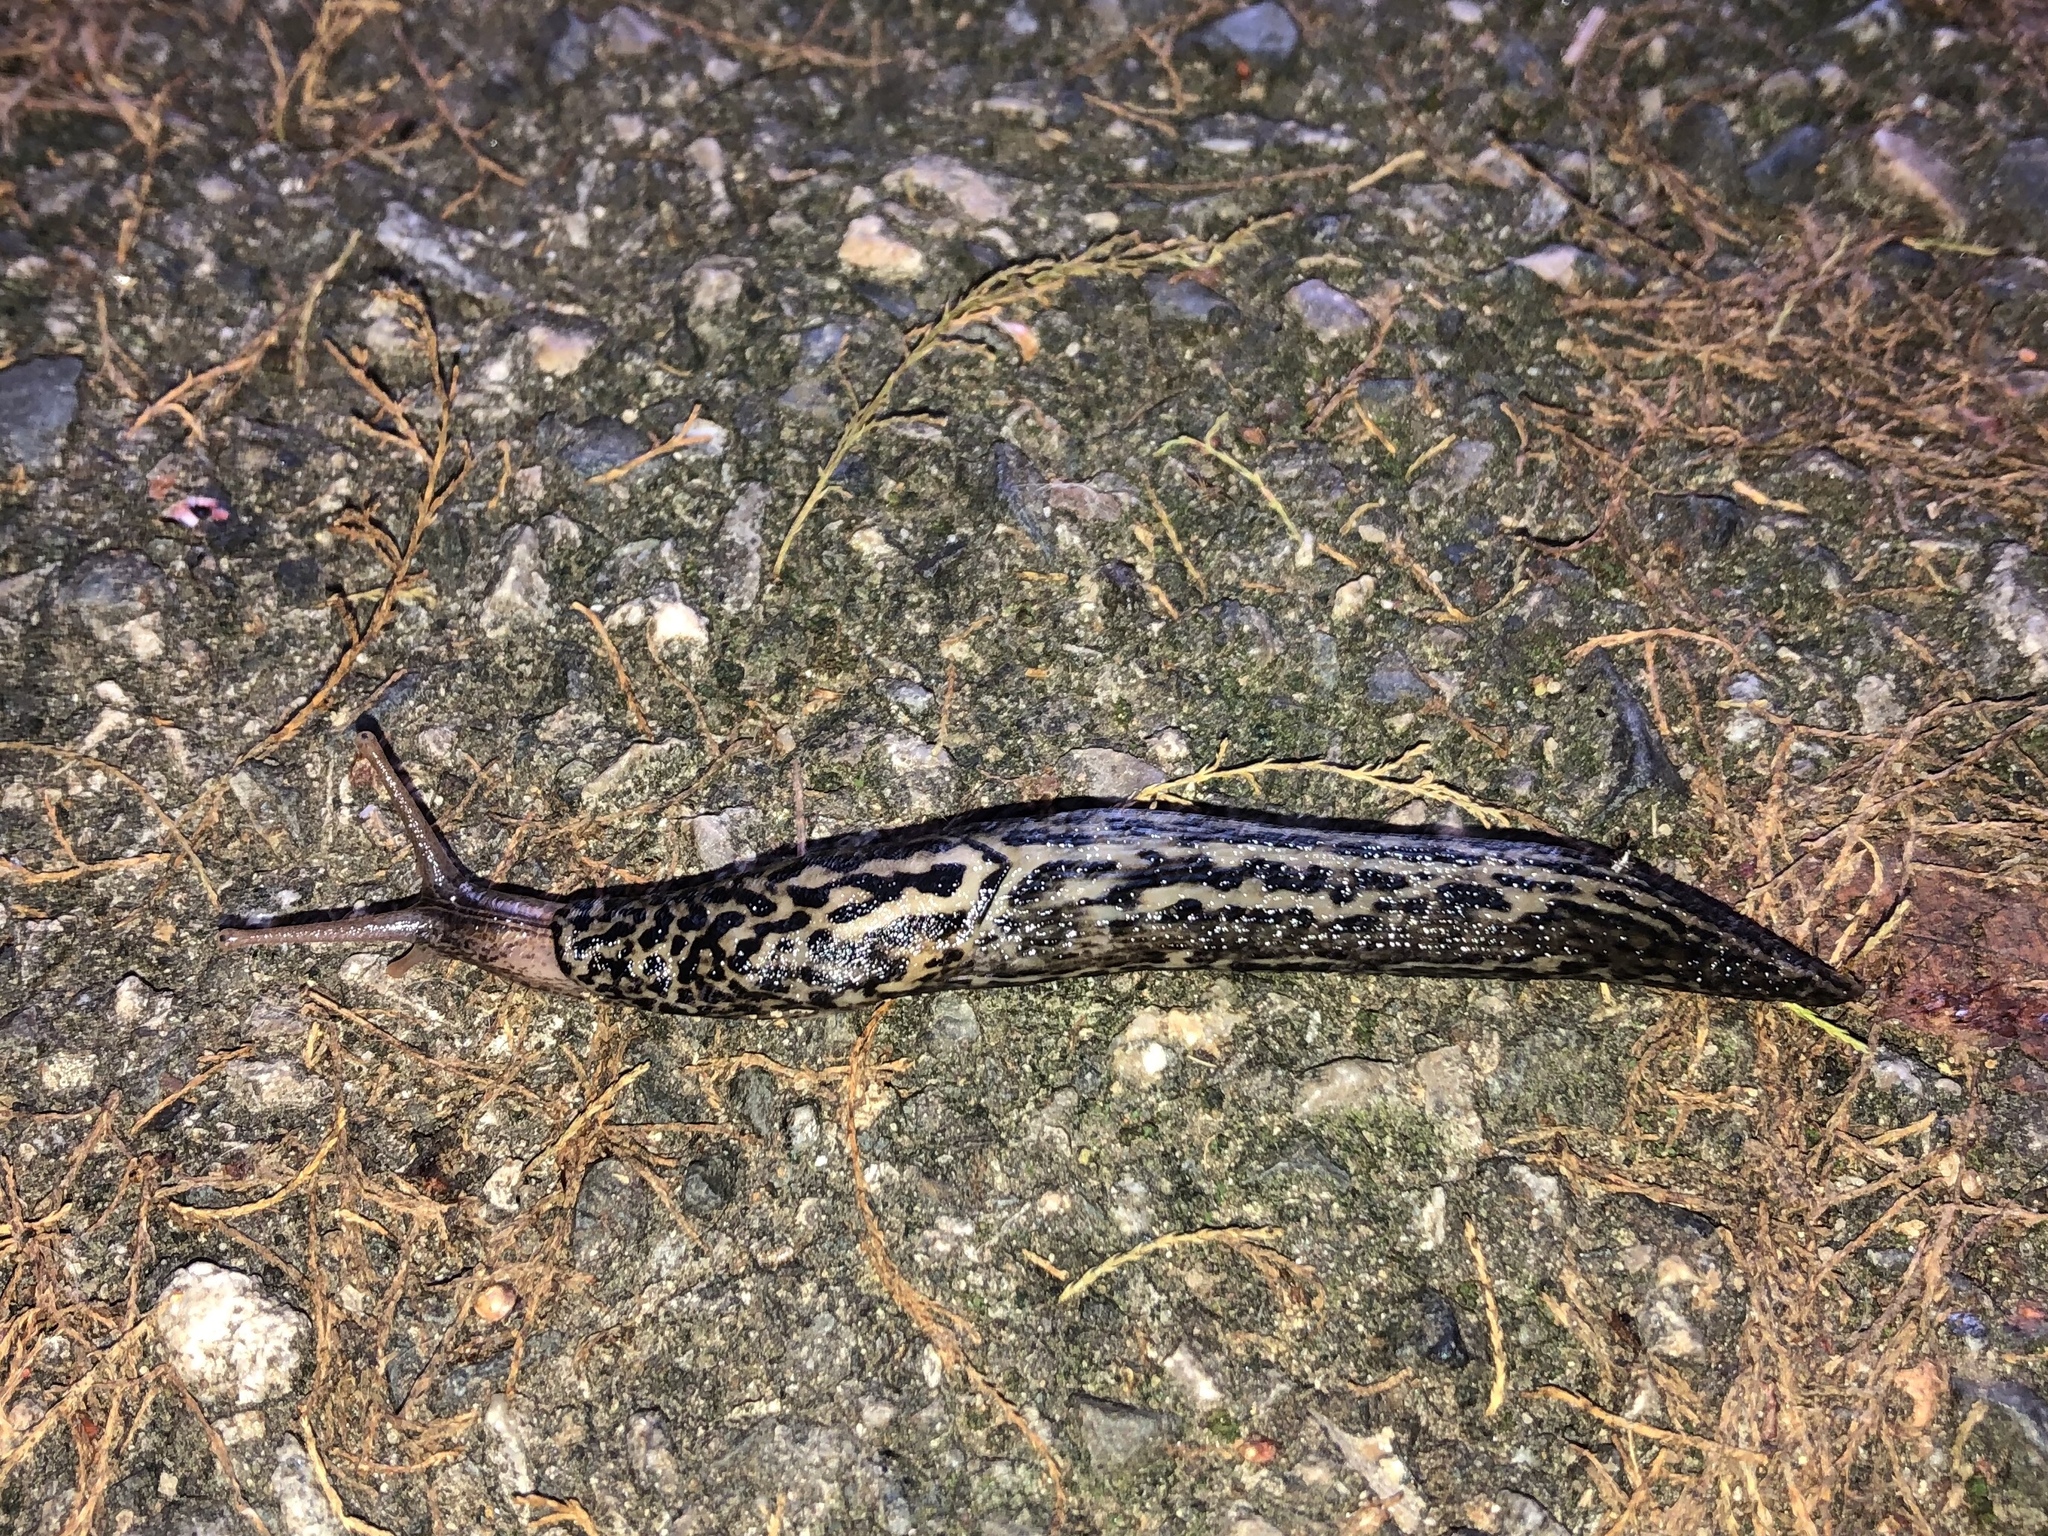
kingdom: Animalia
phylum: Mollusca
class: Gastropoda
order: Stylommatophora
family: Limacidae
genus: Limax
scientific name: Limax maximus
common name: Great grey slug
